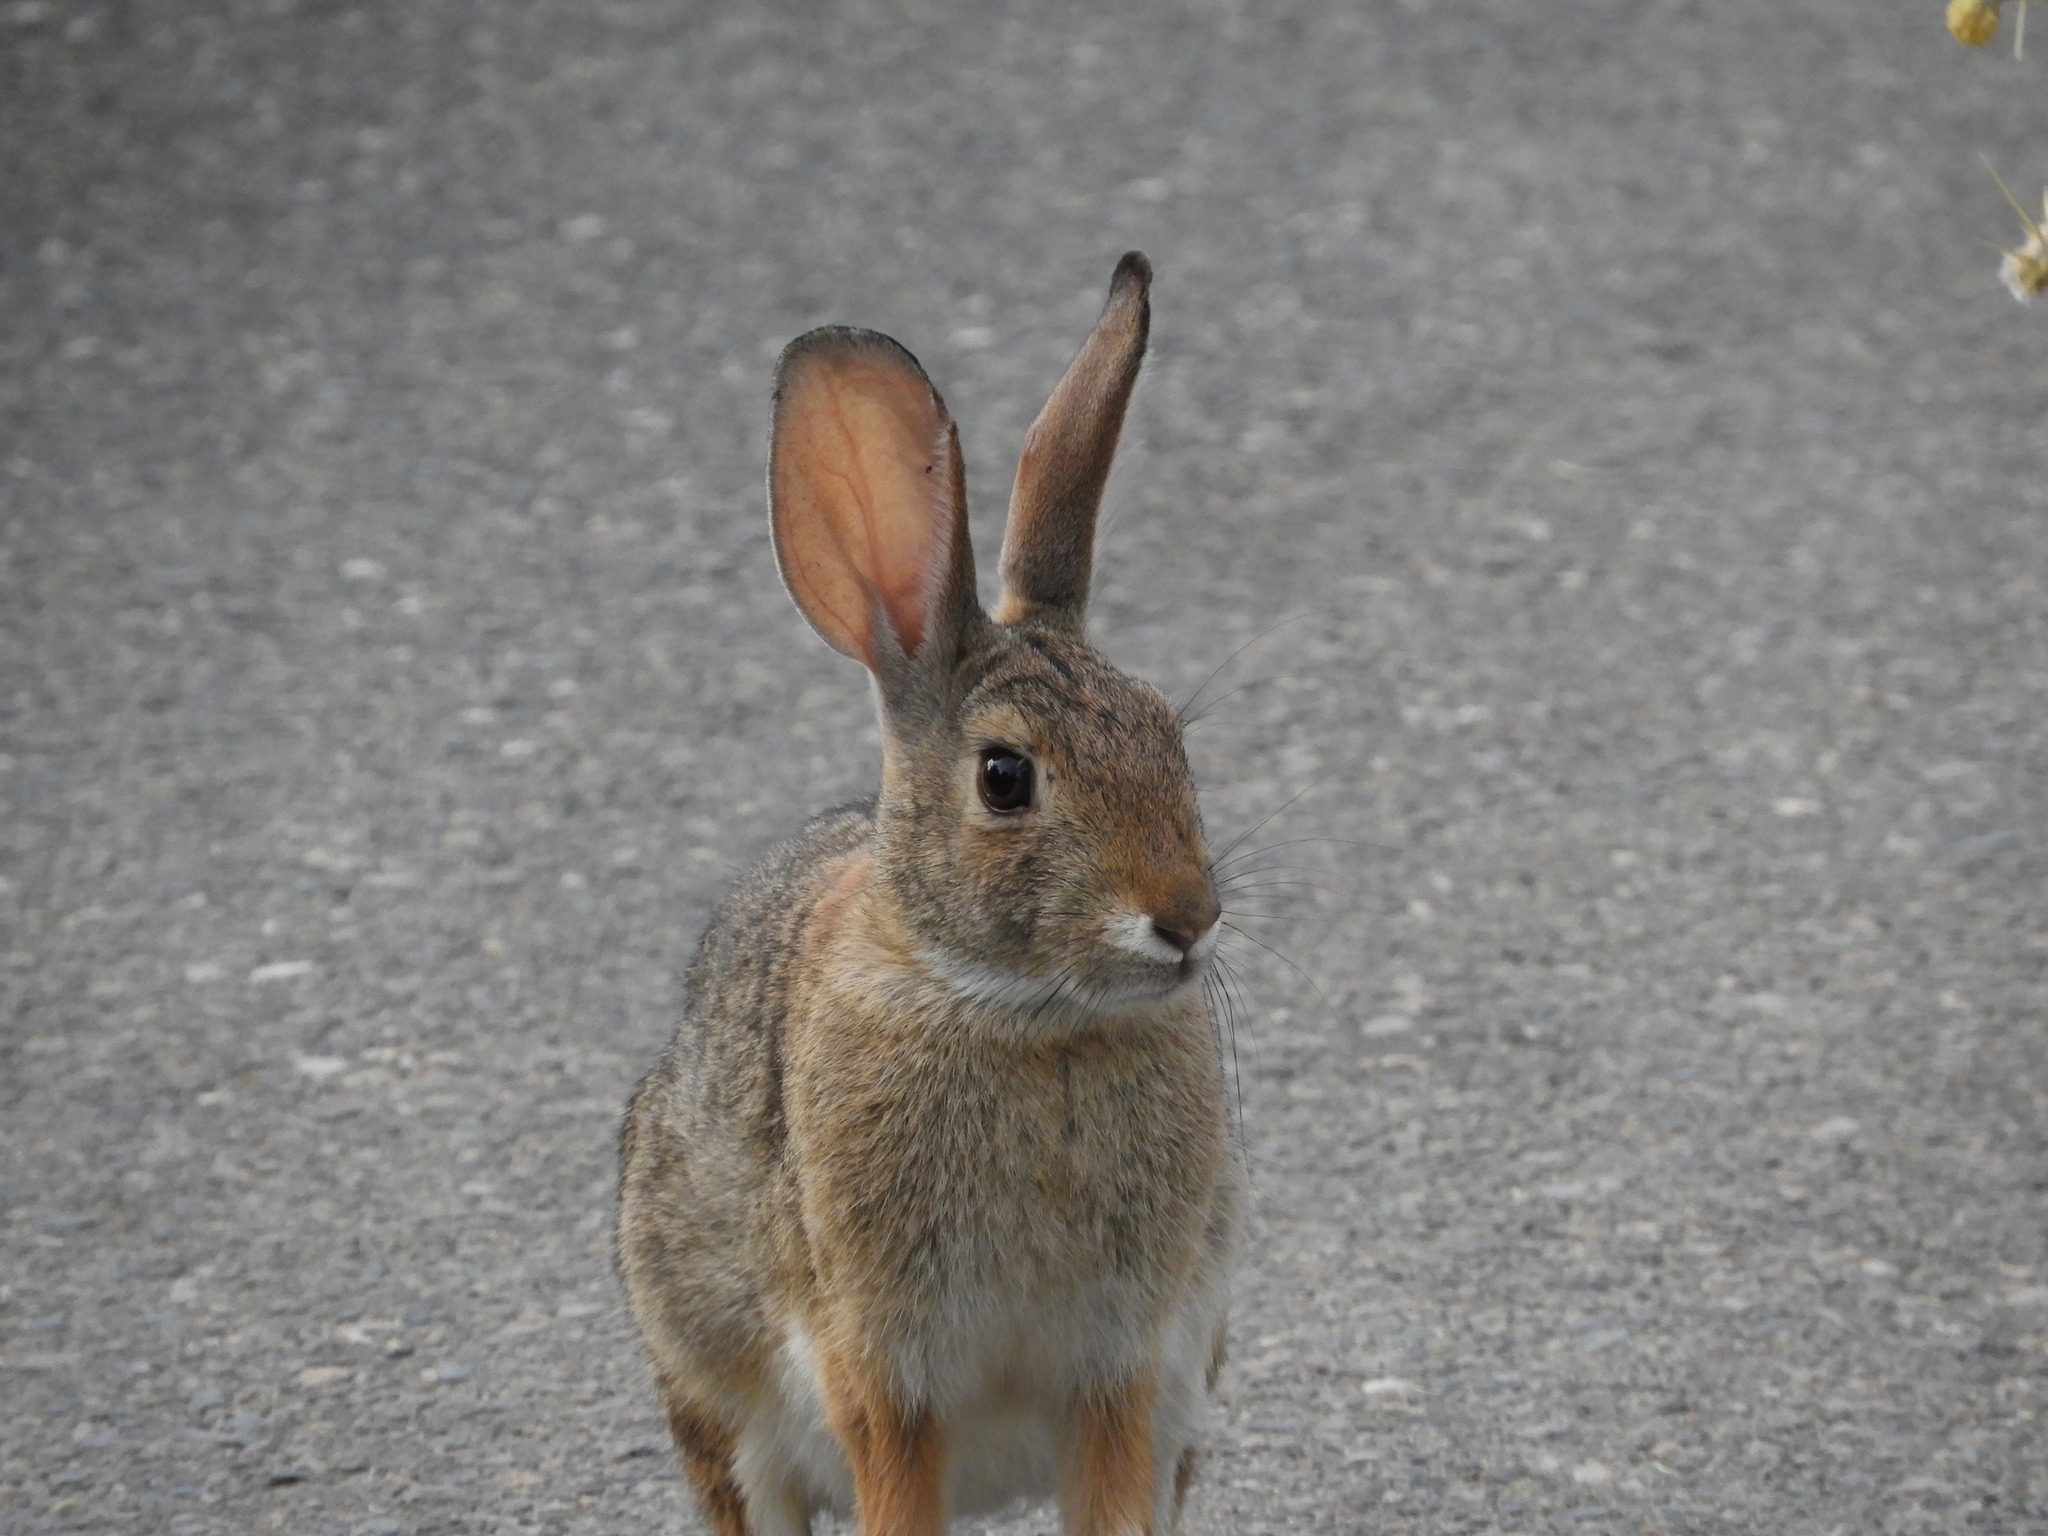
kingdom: Animalia
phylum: Chordata
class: Mammalia
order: Lagomorpha
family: Leporidae
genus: Sylvilagus
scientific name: Sylvilagus audubonii
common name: Desert cottontail
